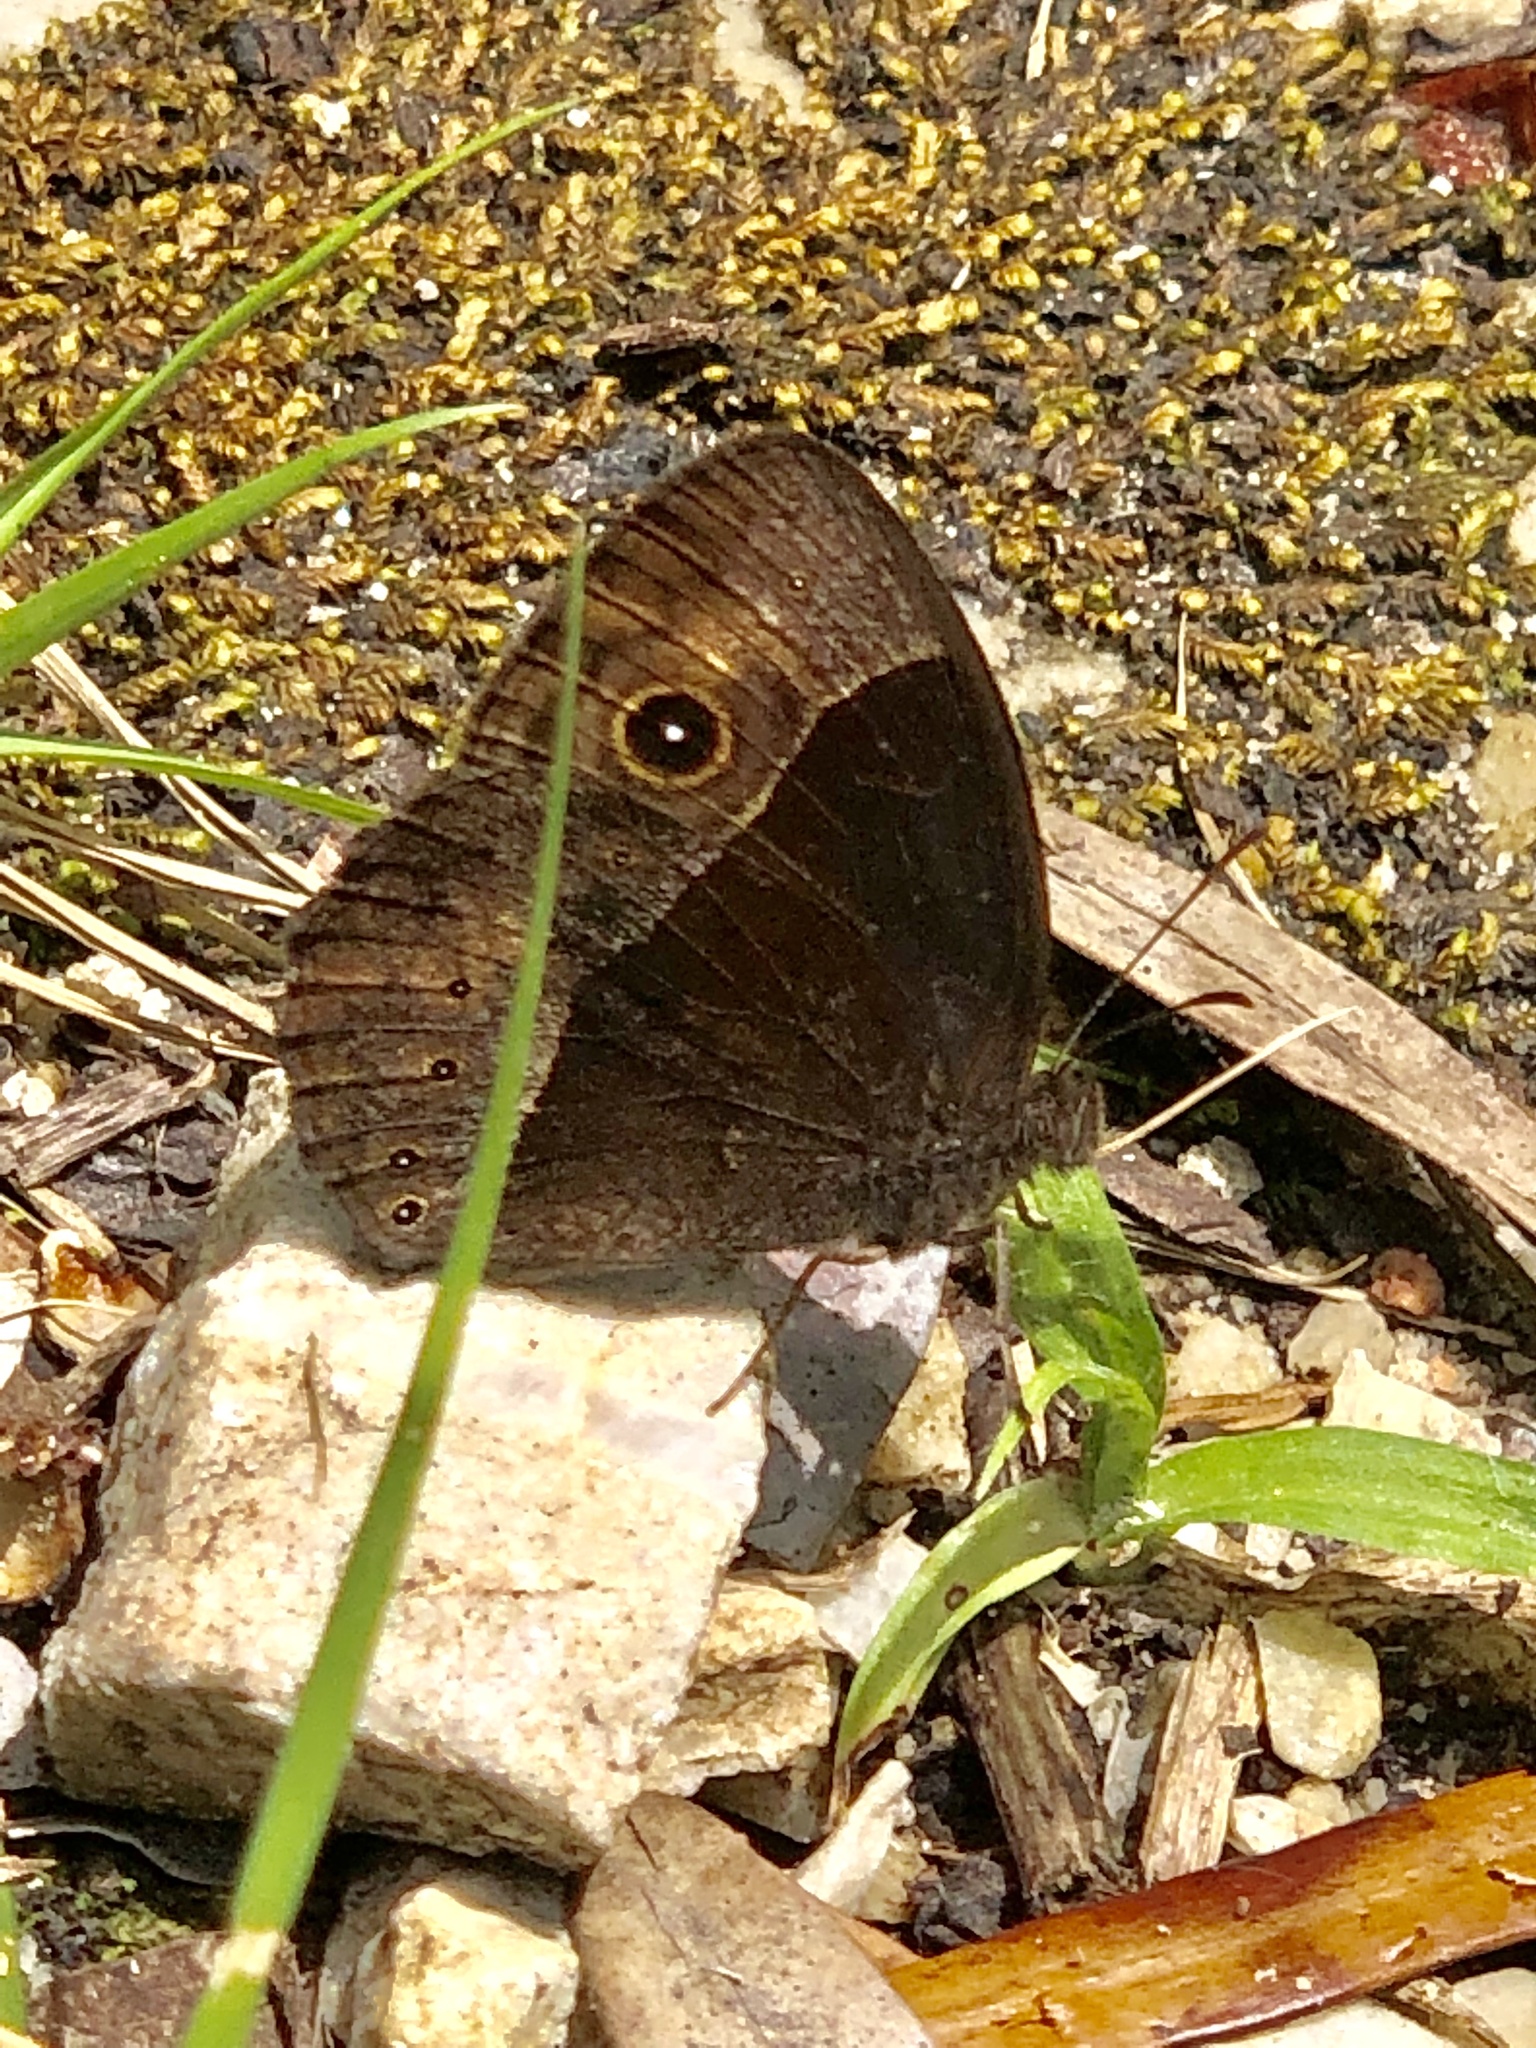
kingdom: Animalia
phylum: Arthropoda
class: Insecta
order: Lepidoptera
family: Nymphalidae
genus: Mycalesis
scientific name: Mycalesis rhacotis
